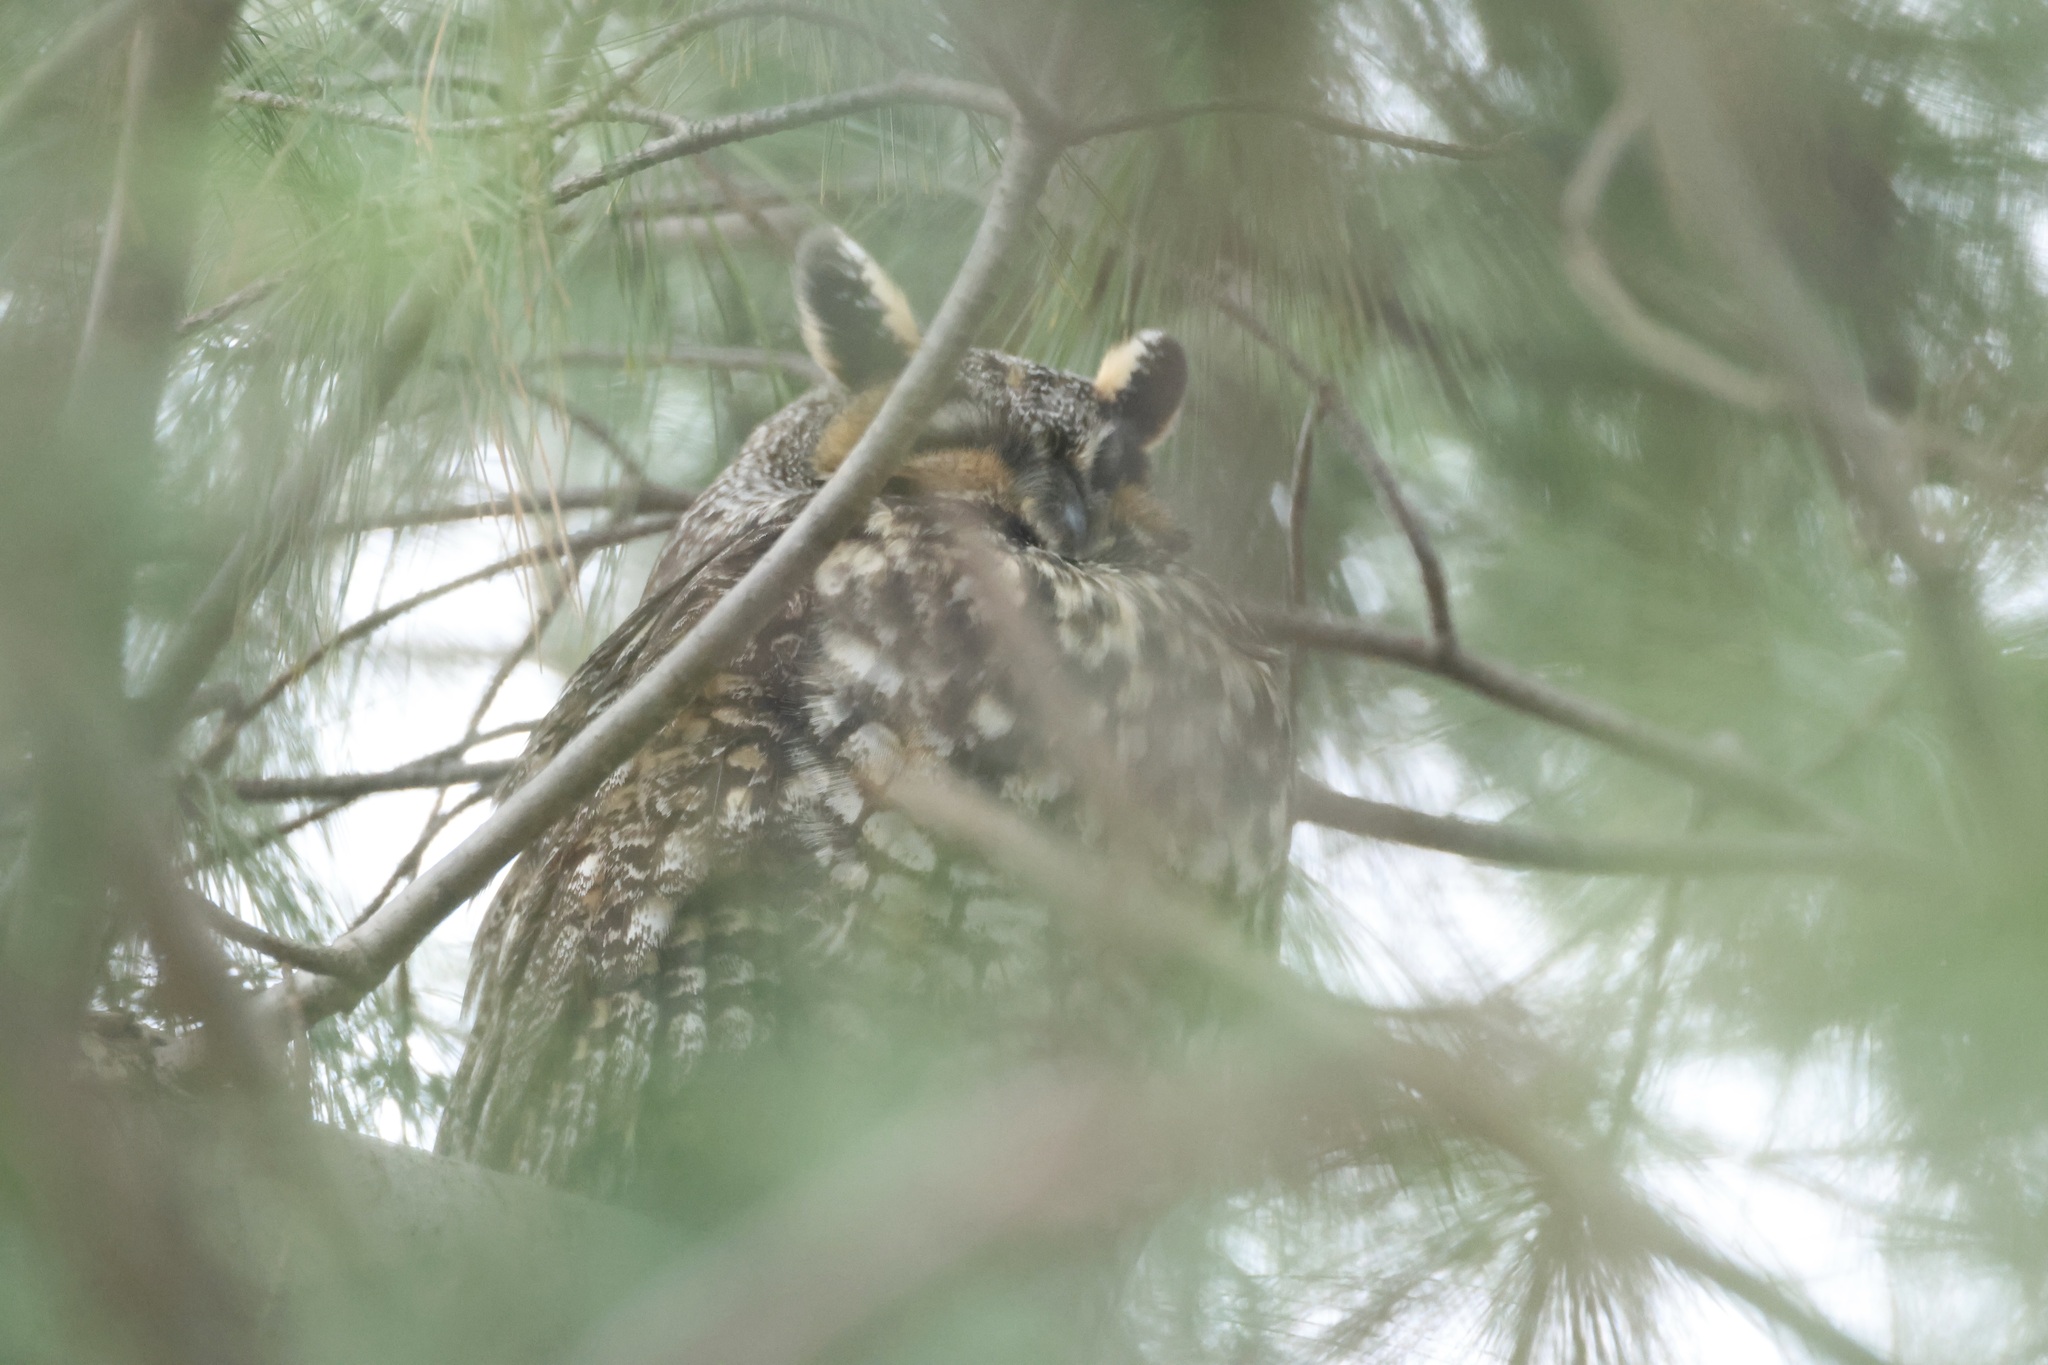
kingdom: Animalia
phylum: Chordata
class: Aves
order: Strigiformes
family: Strigidae
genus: Asio
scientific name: Asio otus
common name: Long-eared owl
